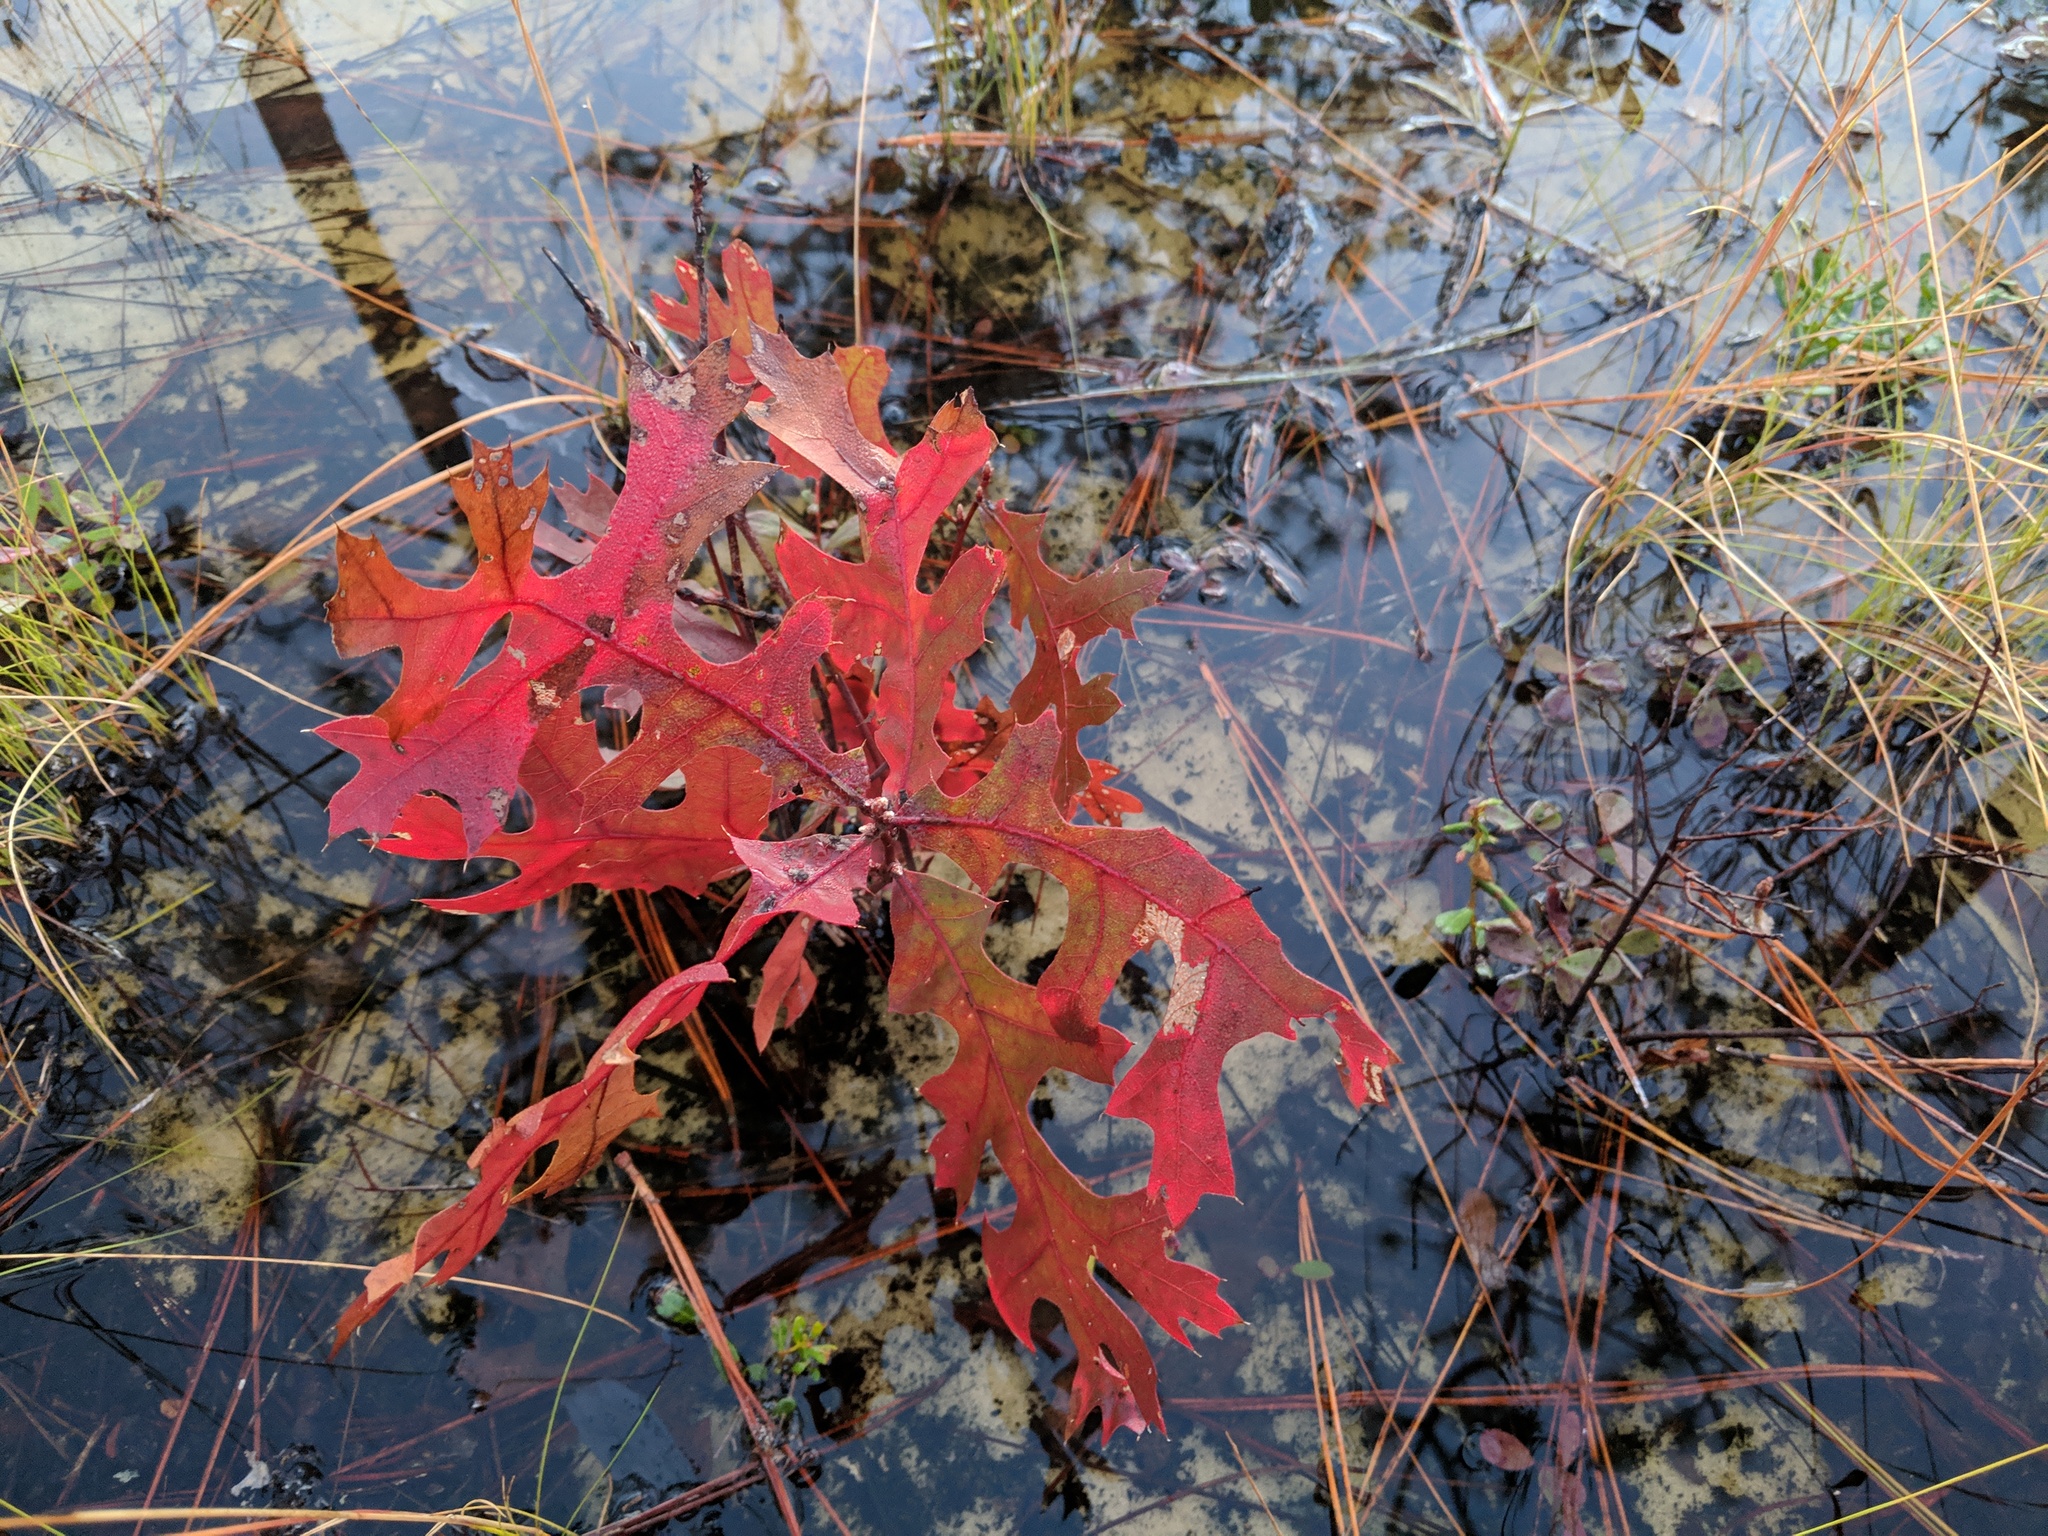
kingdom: Plantae
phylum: Tracheophyta
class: Magnoliopsida
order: Fagales
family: Fagaceae
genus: Quercus
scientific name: Quercus laevis
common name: Turkey oak
